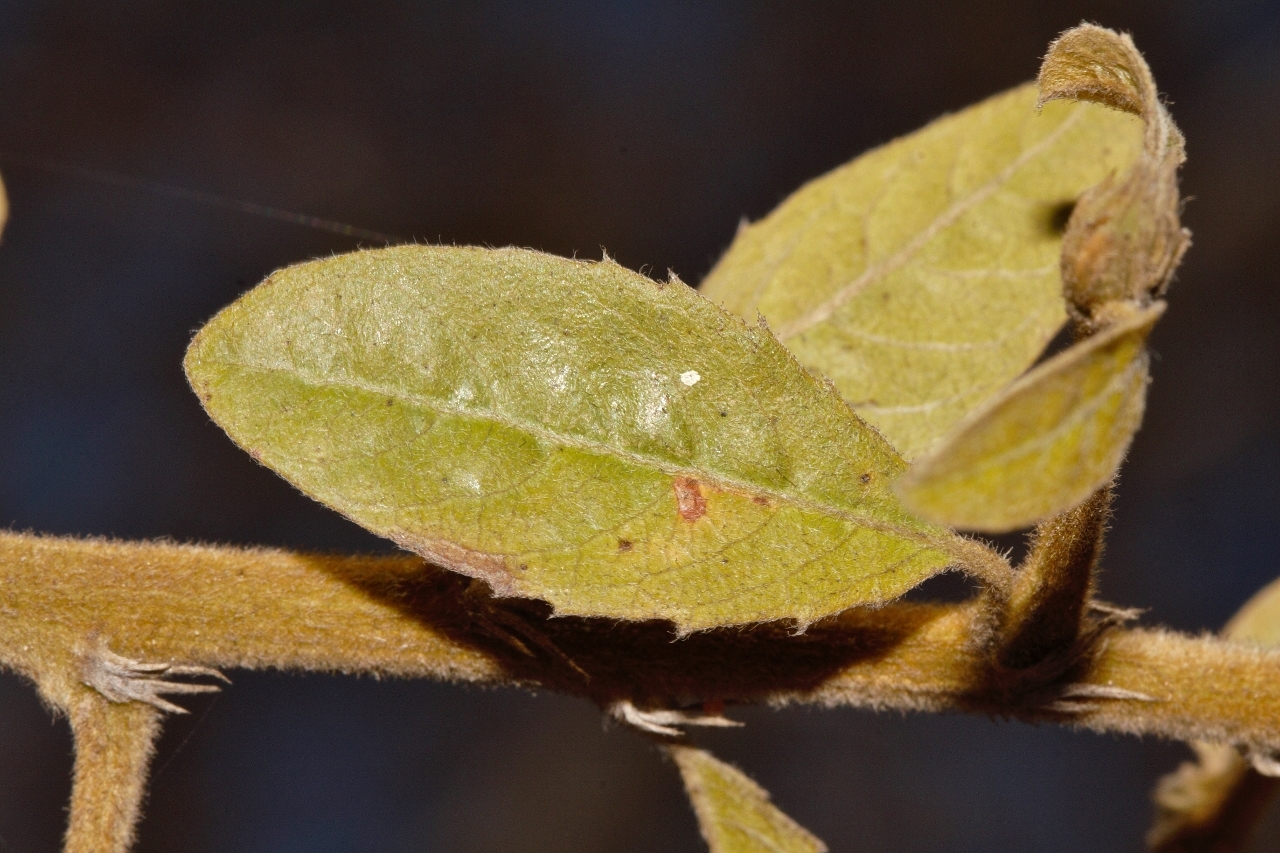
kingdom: Plantae
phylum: Tracheophyta
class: Magnoliopsida
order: Malpighiales
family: Linaceae
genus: Hugonia
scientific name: Hugonia orientalis
